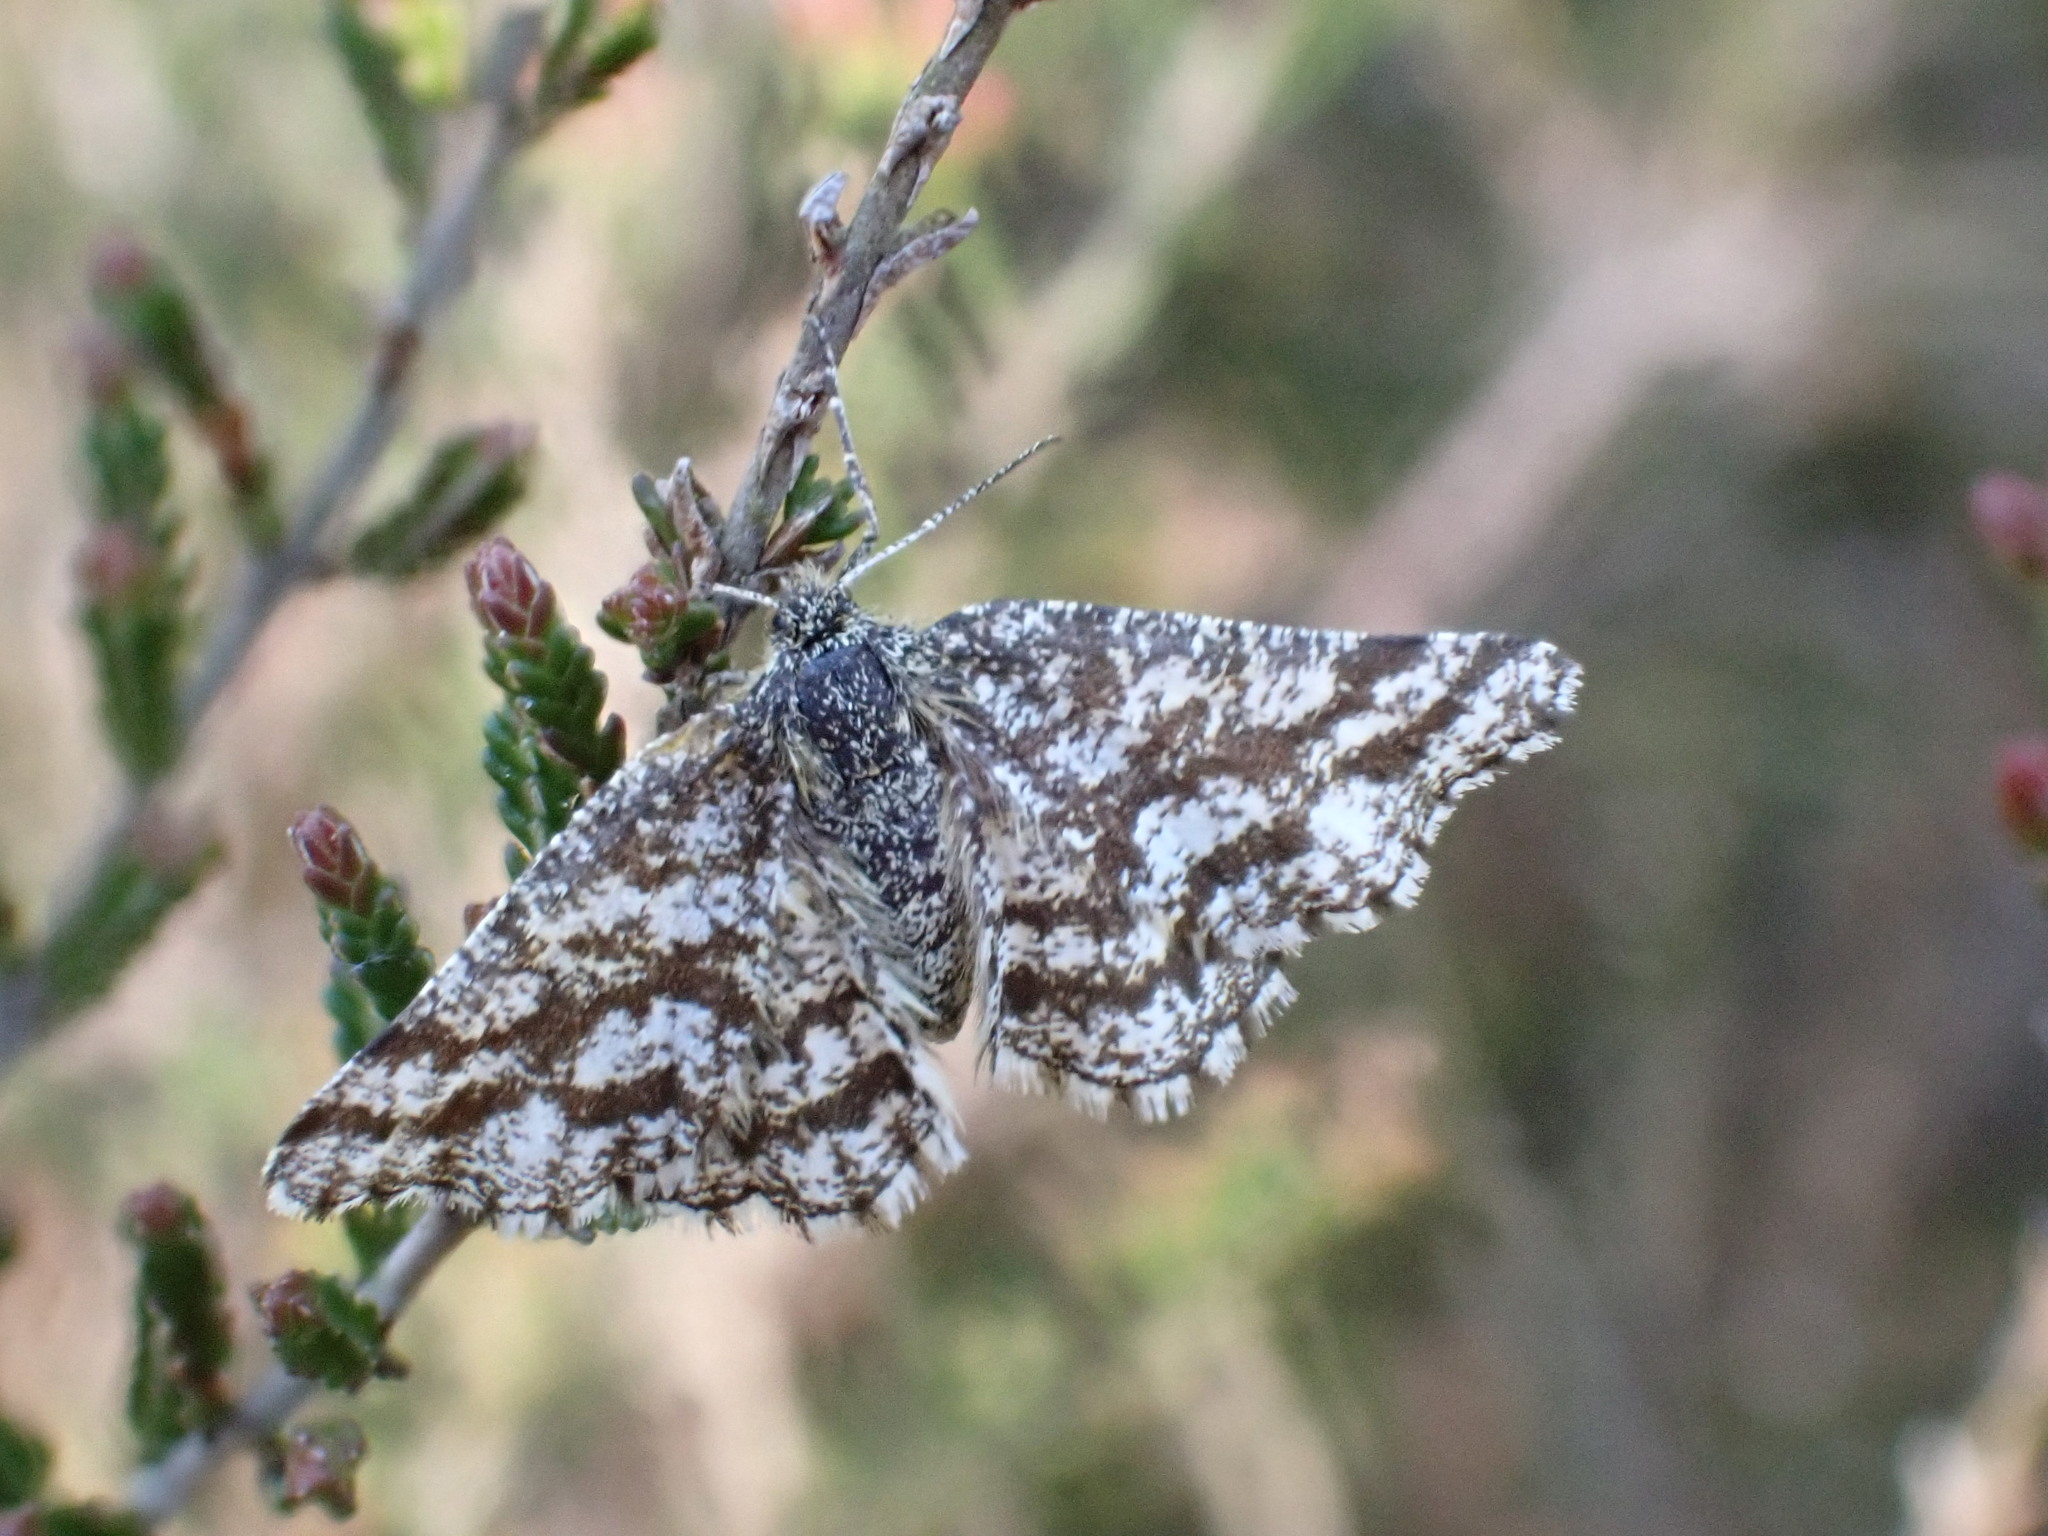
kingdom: Animalia
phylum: Arthropoda
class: Insecta
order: Lepidoptera
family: Geometridae
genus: Ematurga
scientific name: Ematurga atomaria
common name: Common heath
